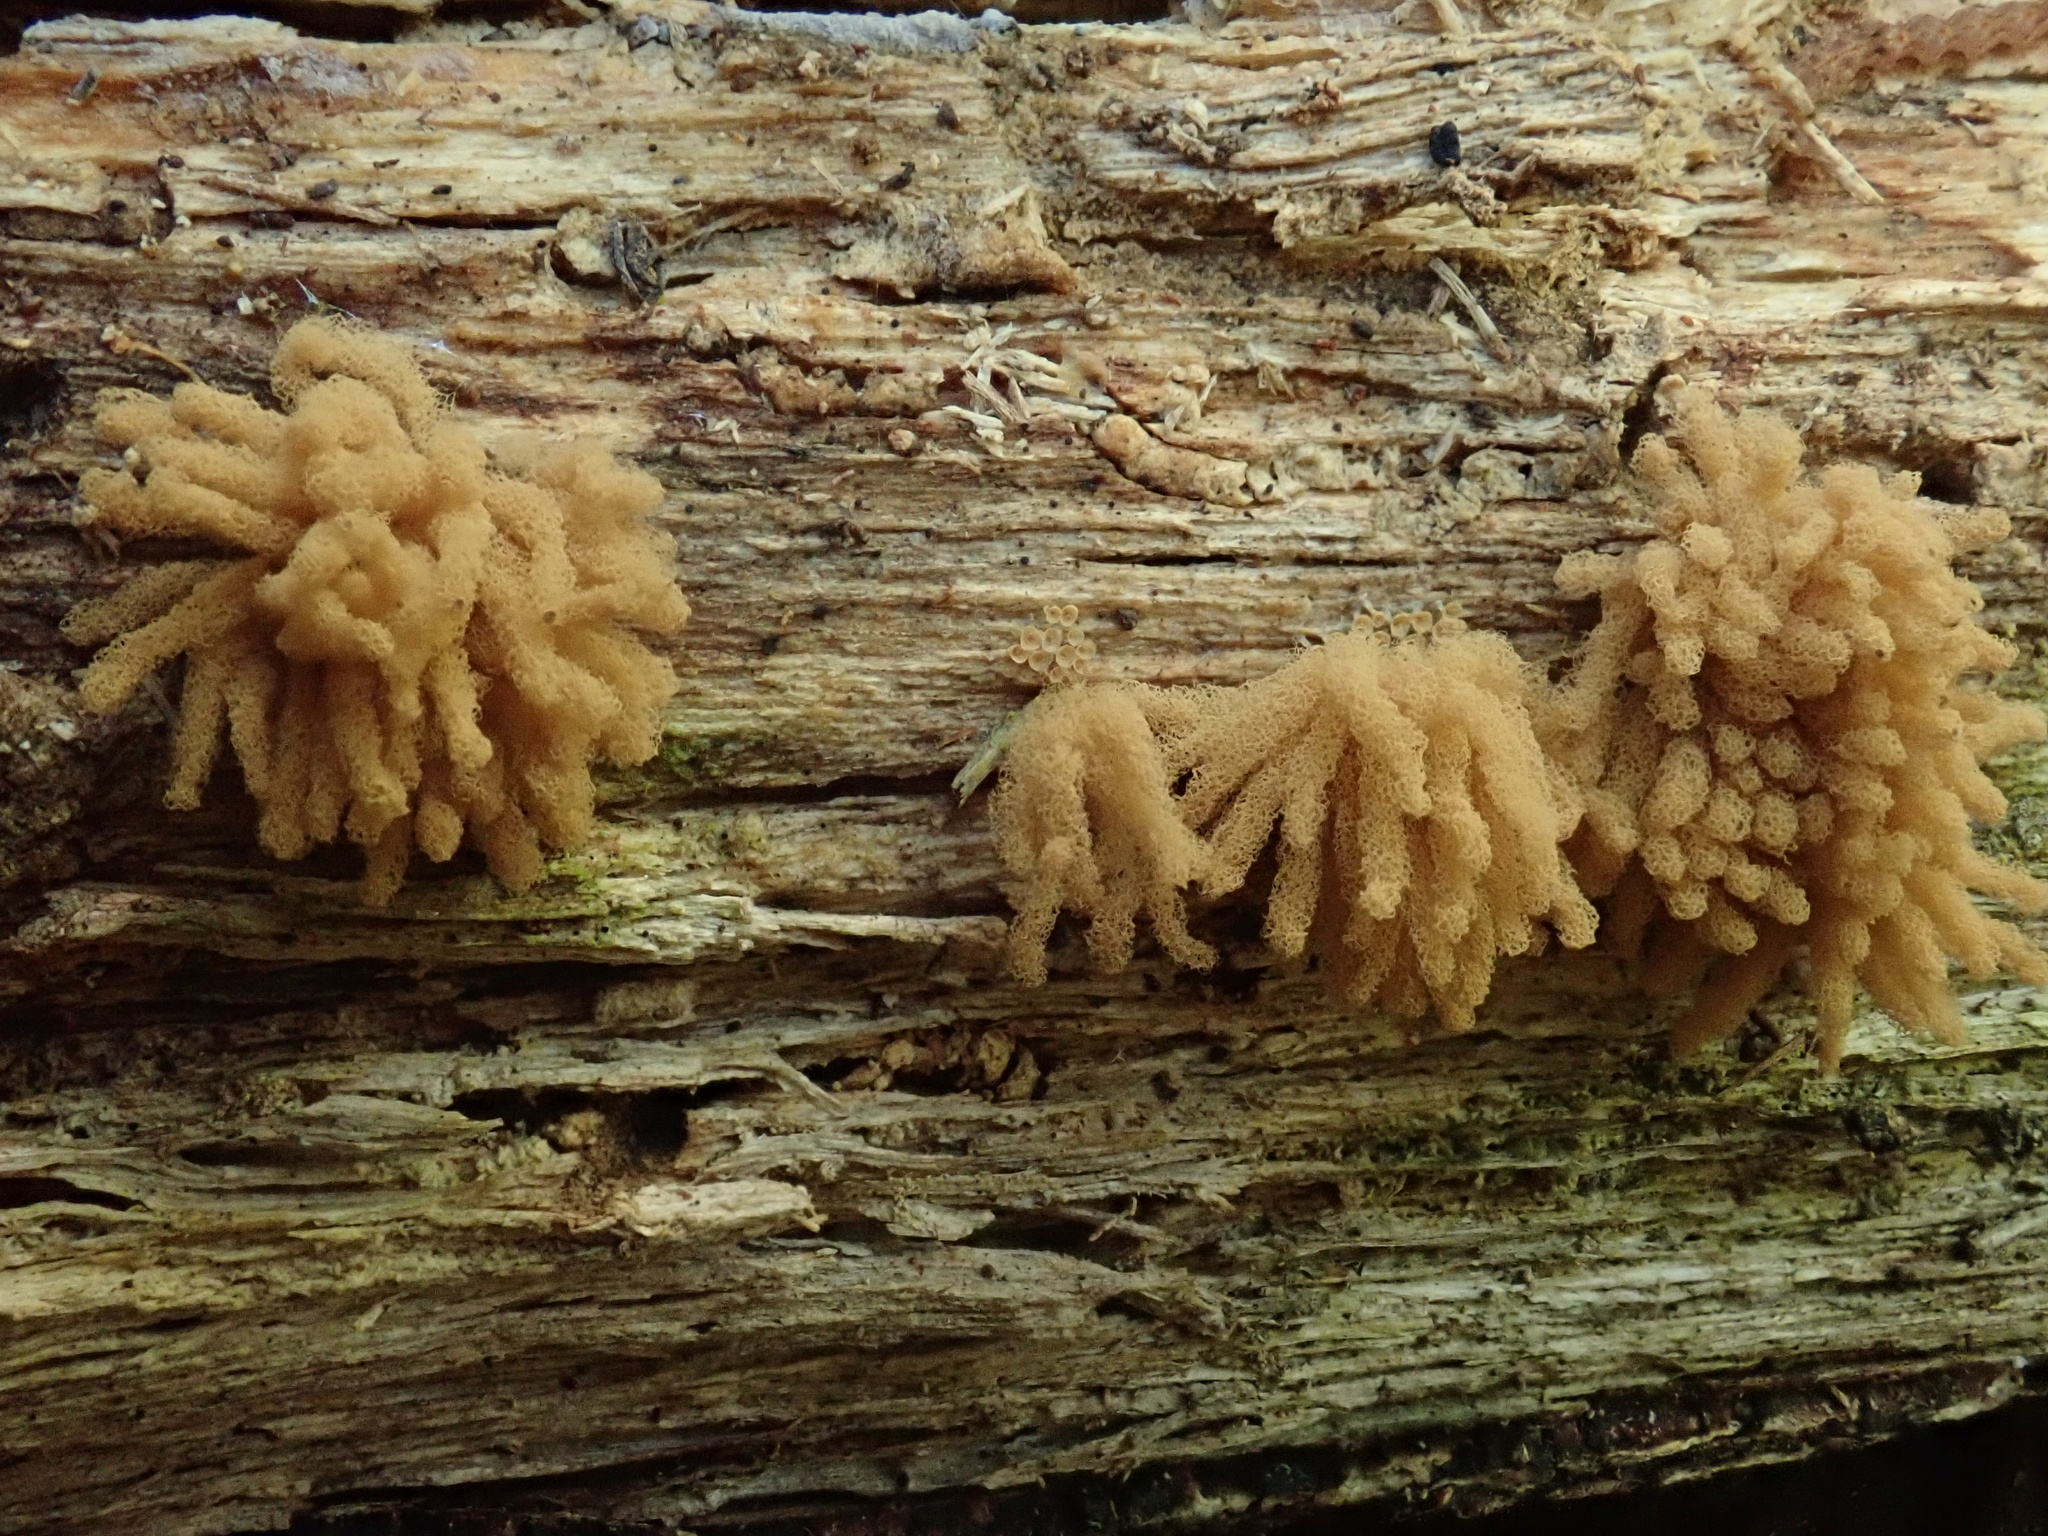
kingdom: Protozoa
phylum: Mycetozoa
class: Myxomycetes
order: Trichiales
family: Arcyriaceae
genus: Arcyria
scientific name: Arcyria obvelata
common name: Yellow carnival candy slime
